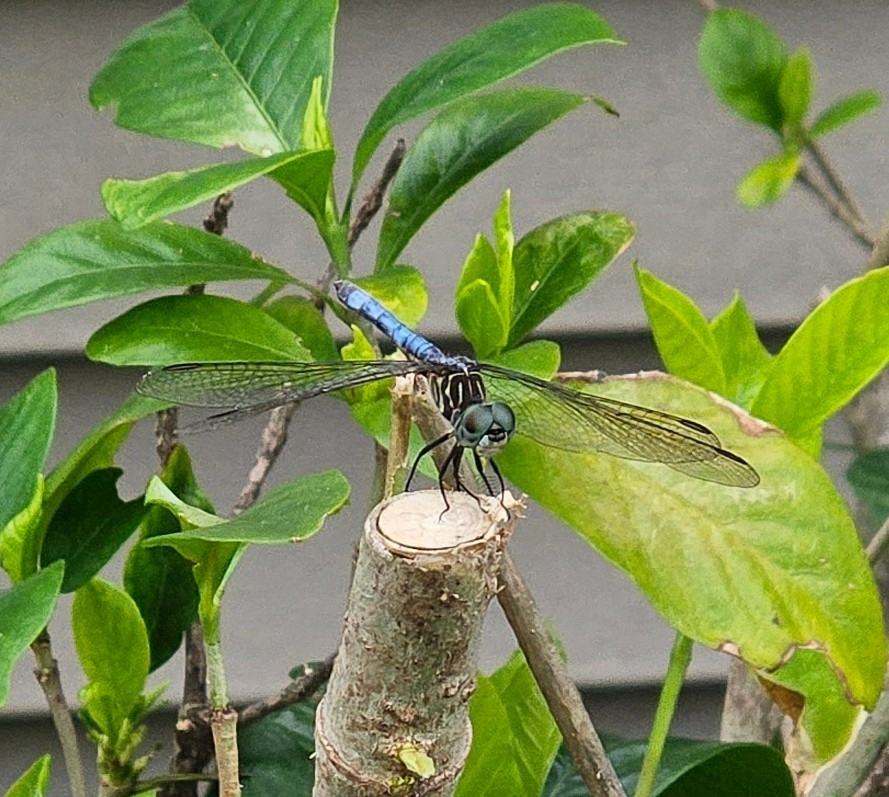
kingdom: Animalia
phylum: Arthropoda
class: Insecta
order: Odonata
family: Libellulidae
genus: Pachydiplax
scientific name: Pachydiplax longipennis
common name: Blue dasher
